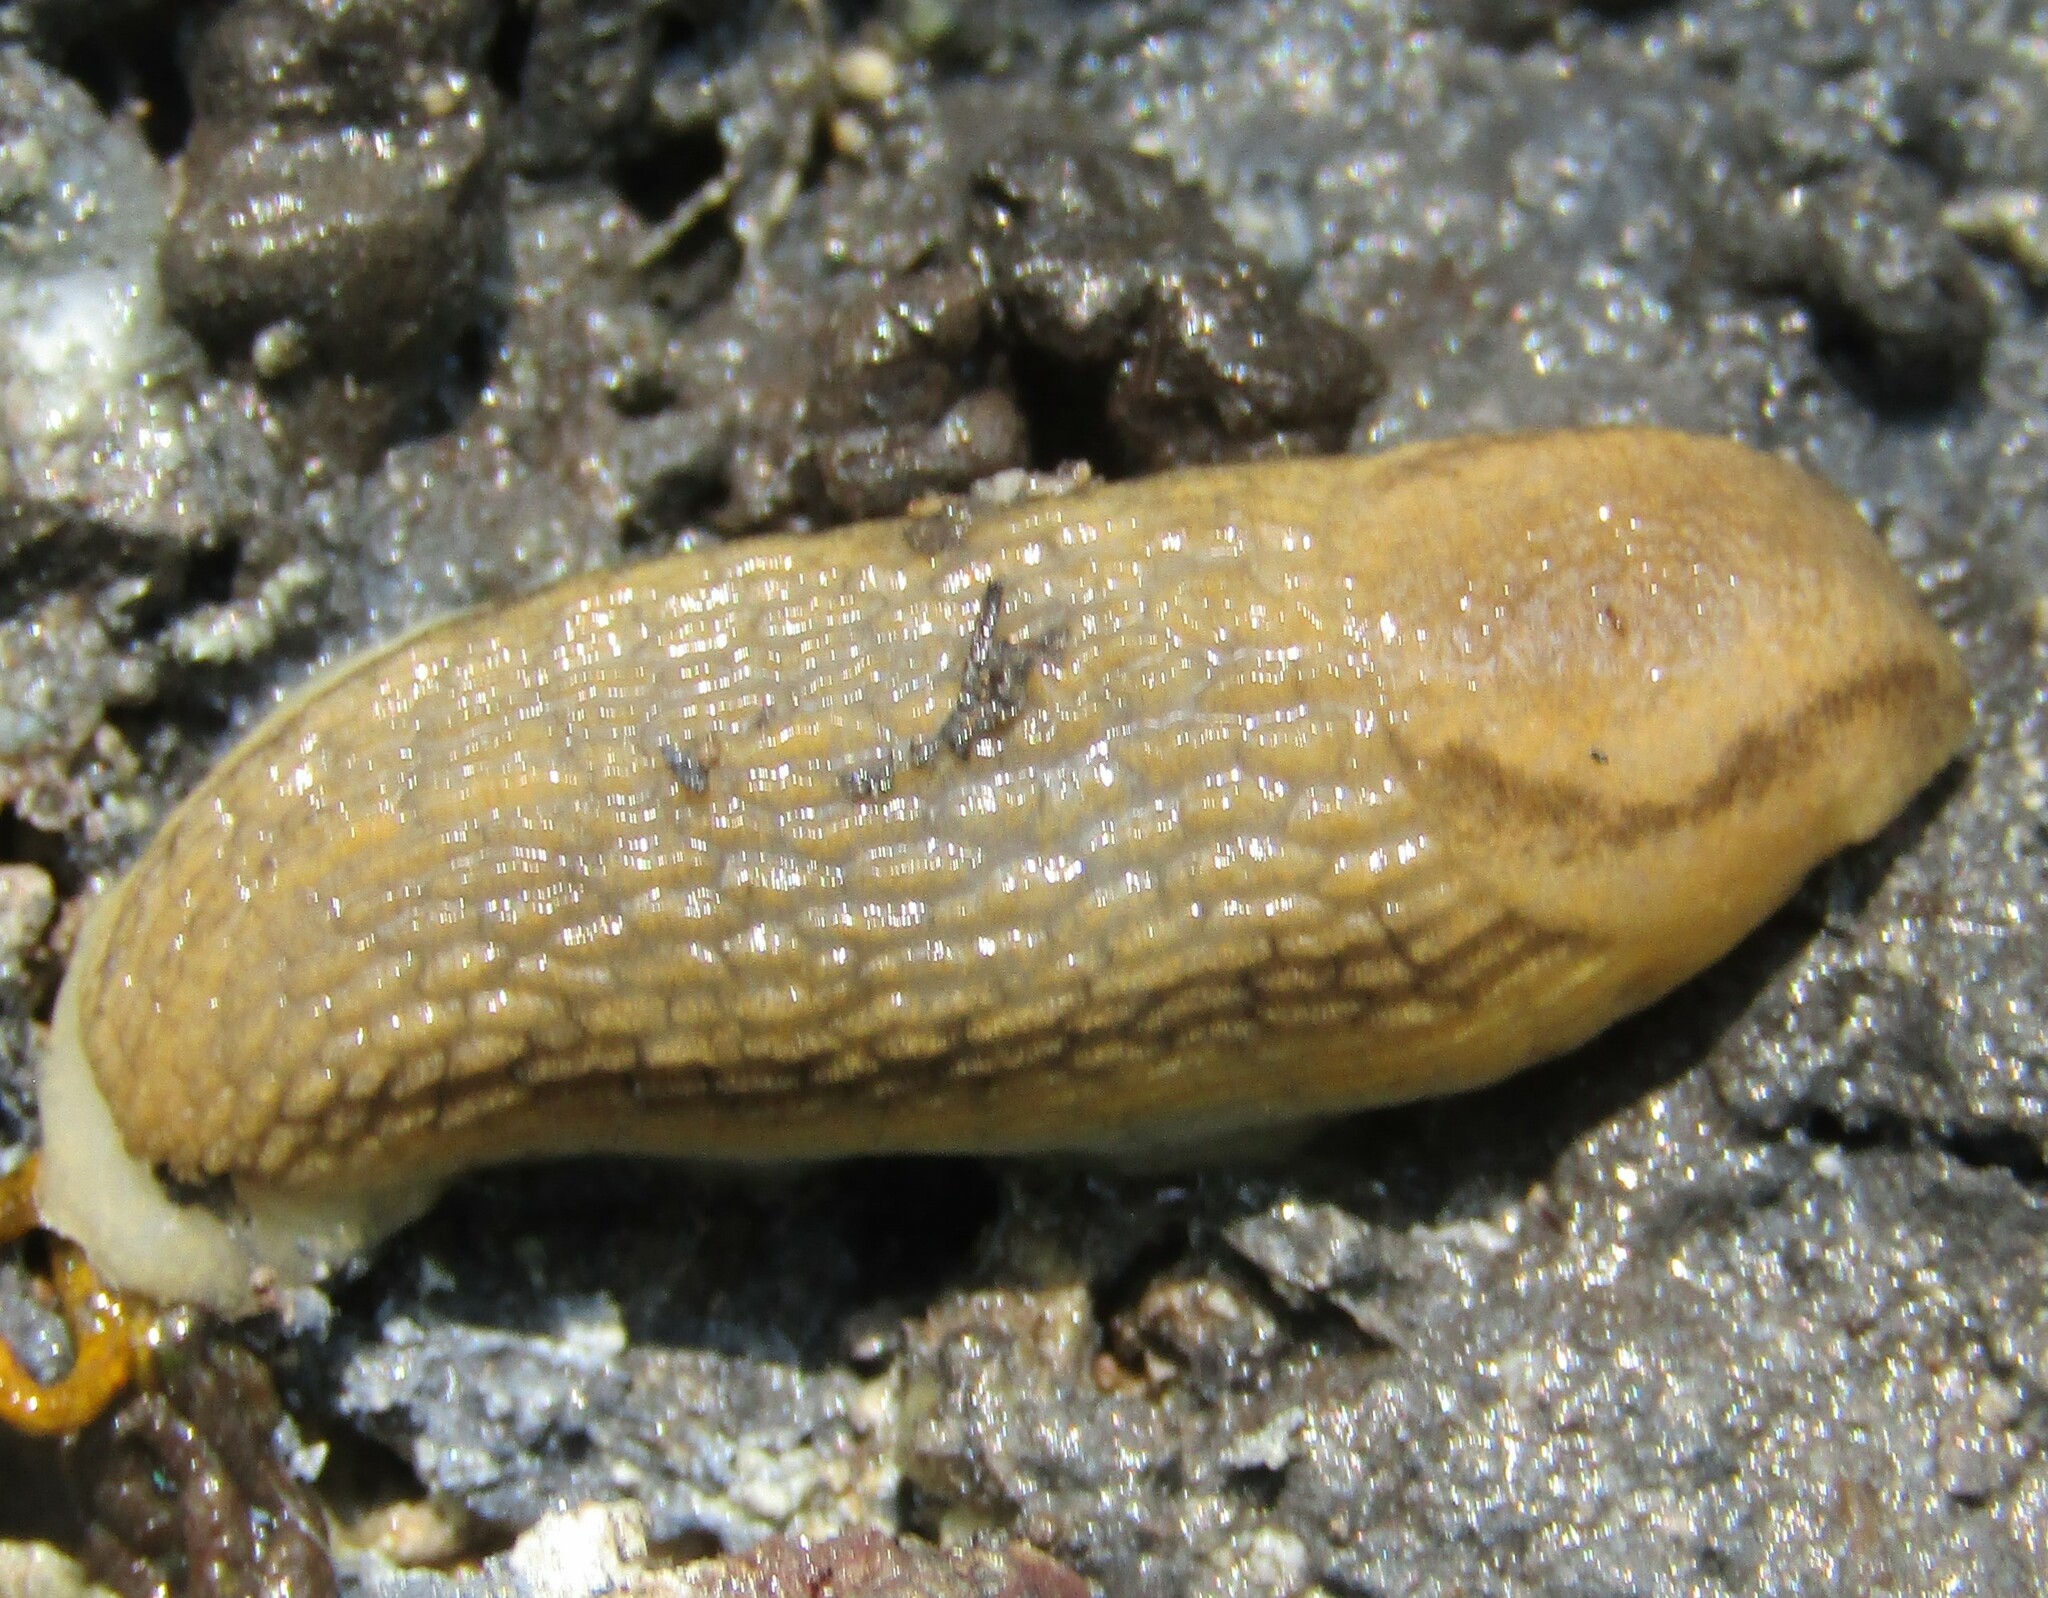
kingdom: Animalia
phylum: Mollusca
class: Gastropoda
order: Stylommatophora
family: Arionidae
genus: Arion
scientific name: Arion fasciatus
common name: Orange-banded arion
